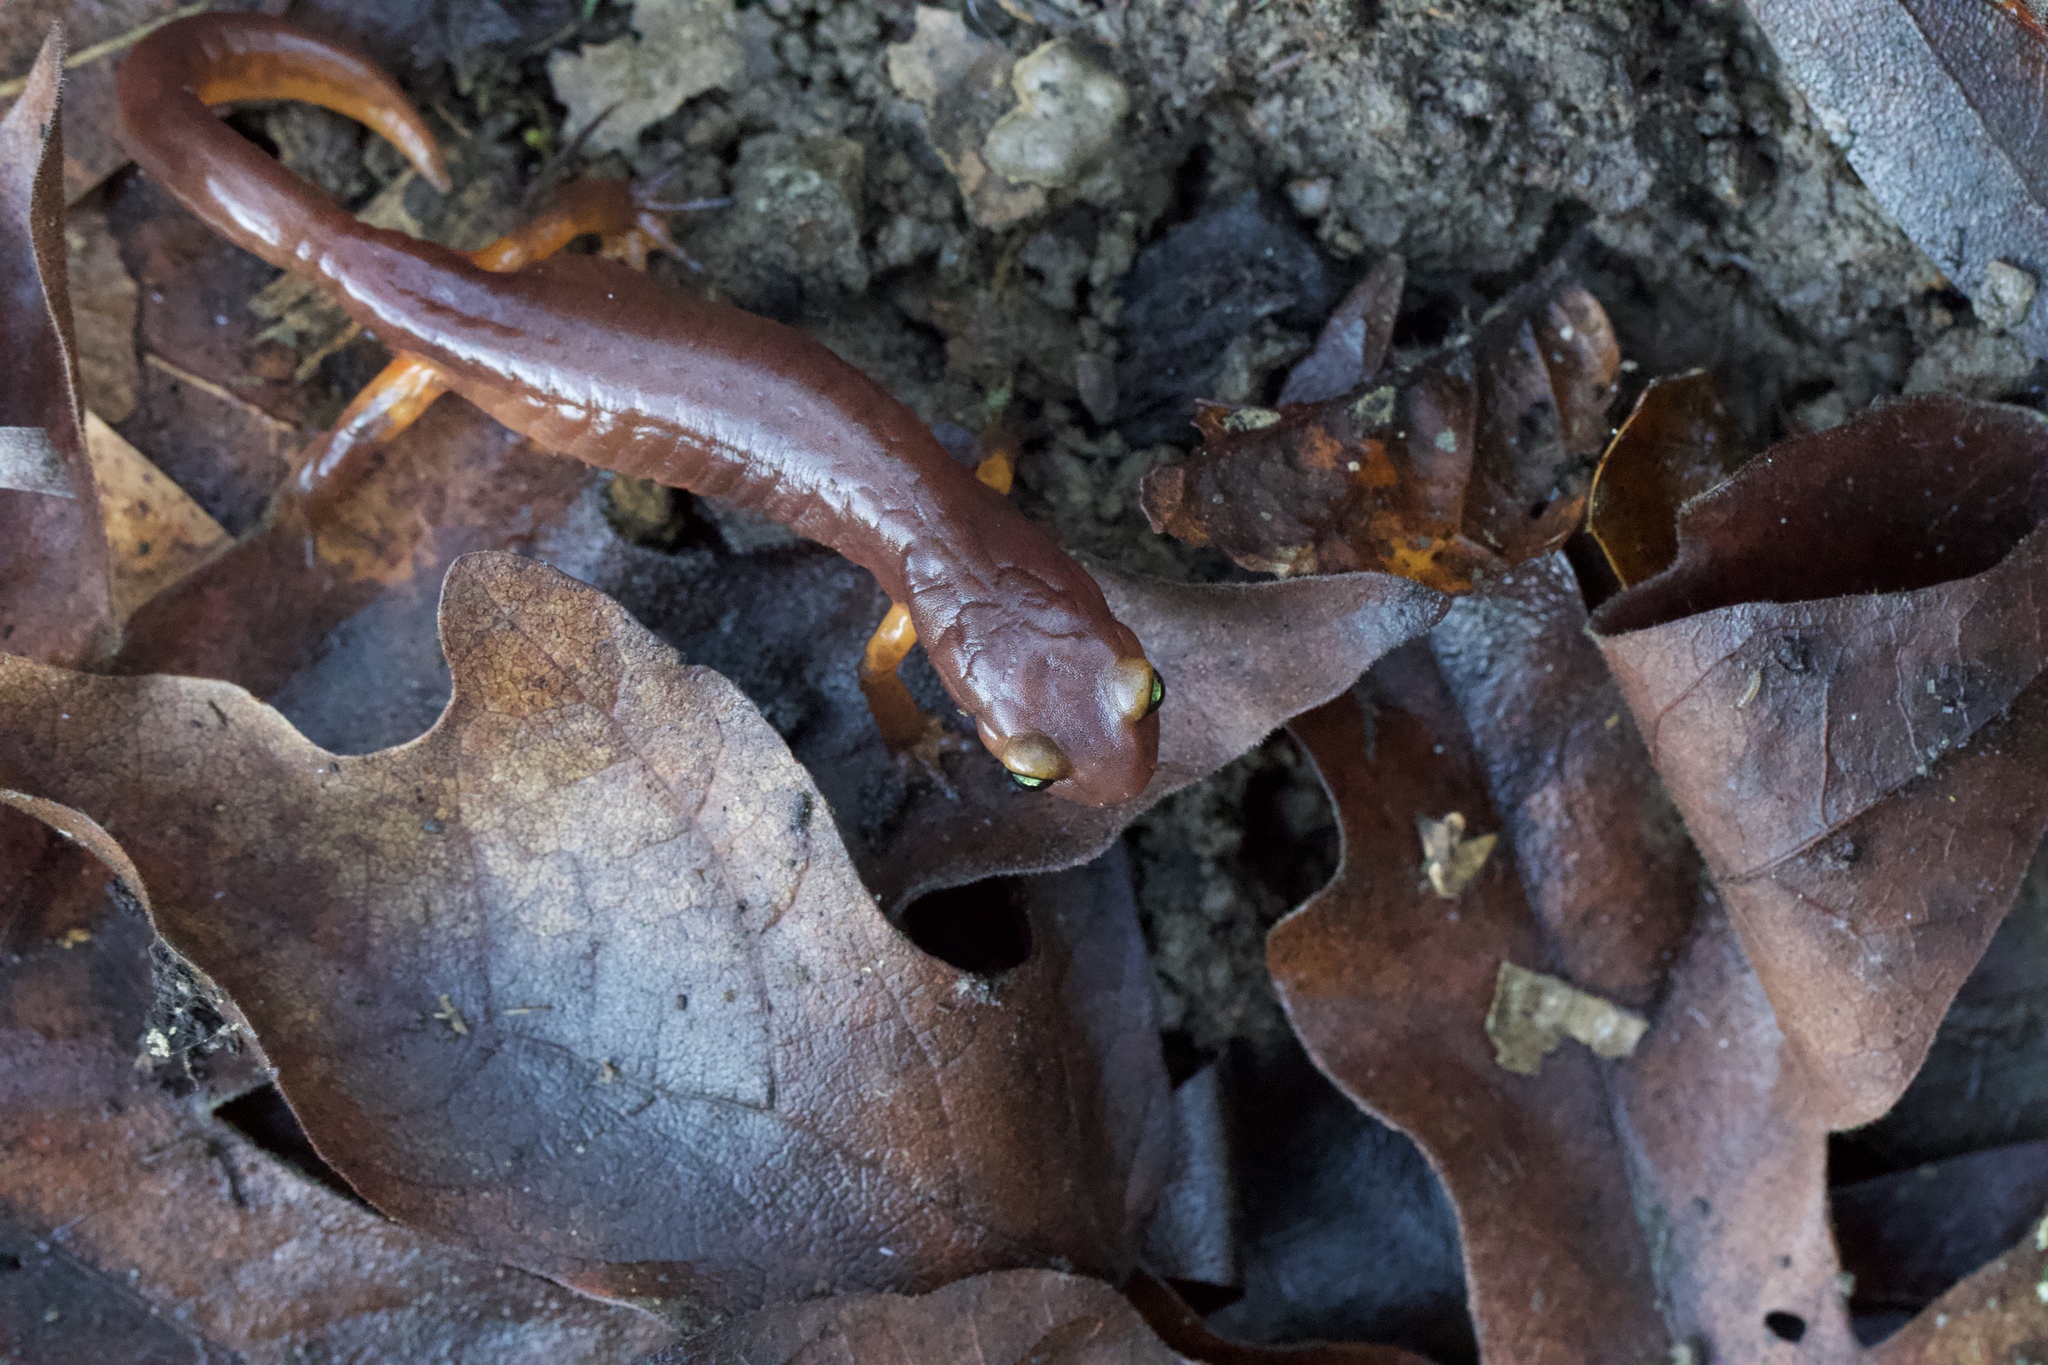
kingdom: Animalia
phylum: Chordata
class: Amphibia
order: Caudata
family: Plethodontidae
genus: Ensatina
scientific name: Ensatina eschscholtzii
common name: Ensatina
